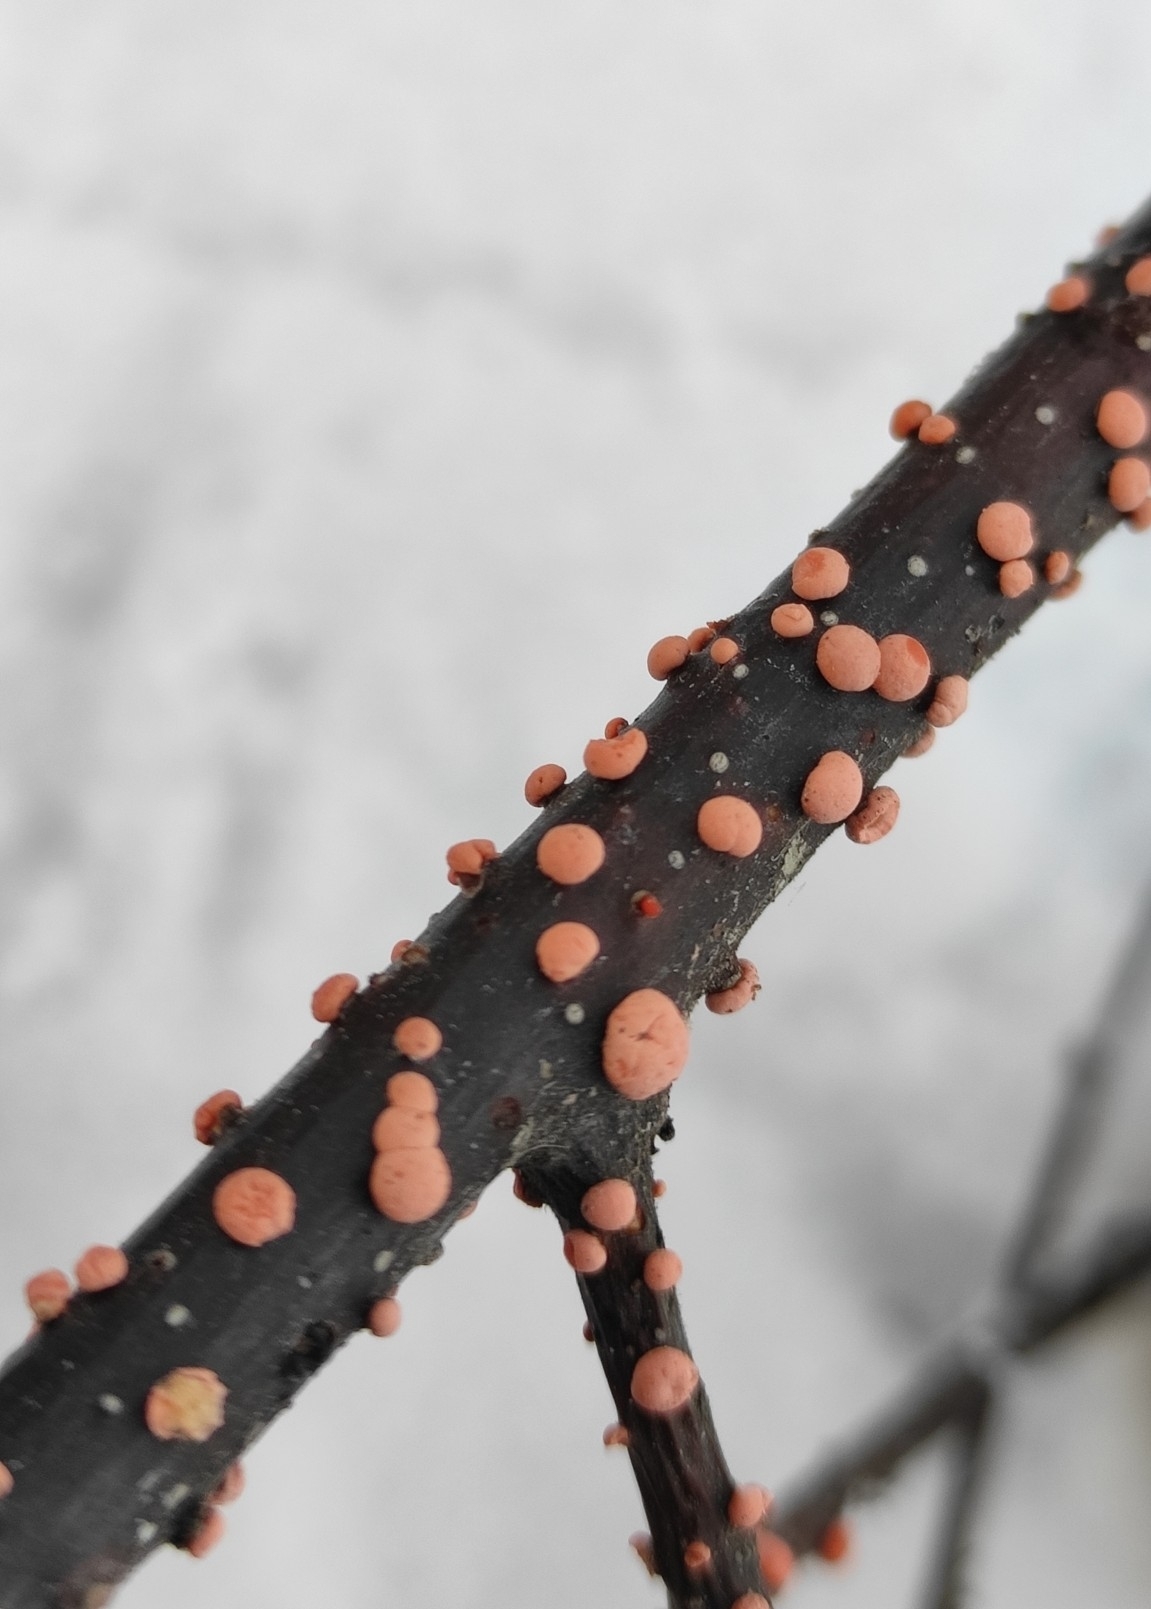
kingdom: Fungi
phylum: Ascomycota
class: Sordariomycetes
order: Hypocreales
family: Nectriaceae
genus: Nectria
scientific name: Nectria cinnabarina
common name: Coral spot
